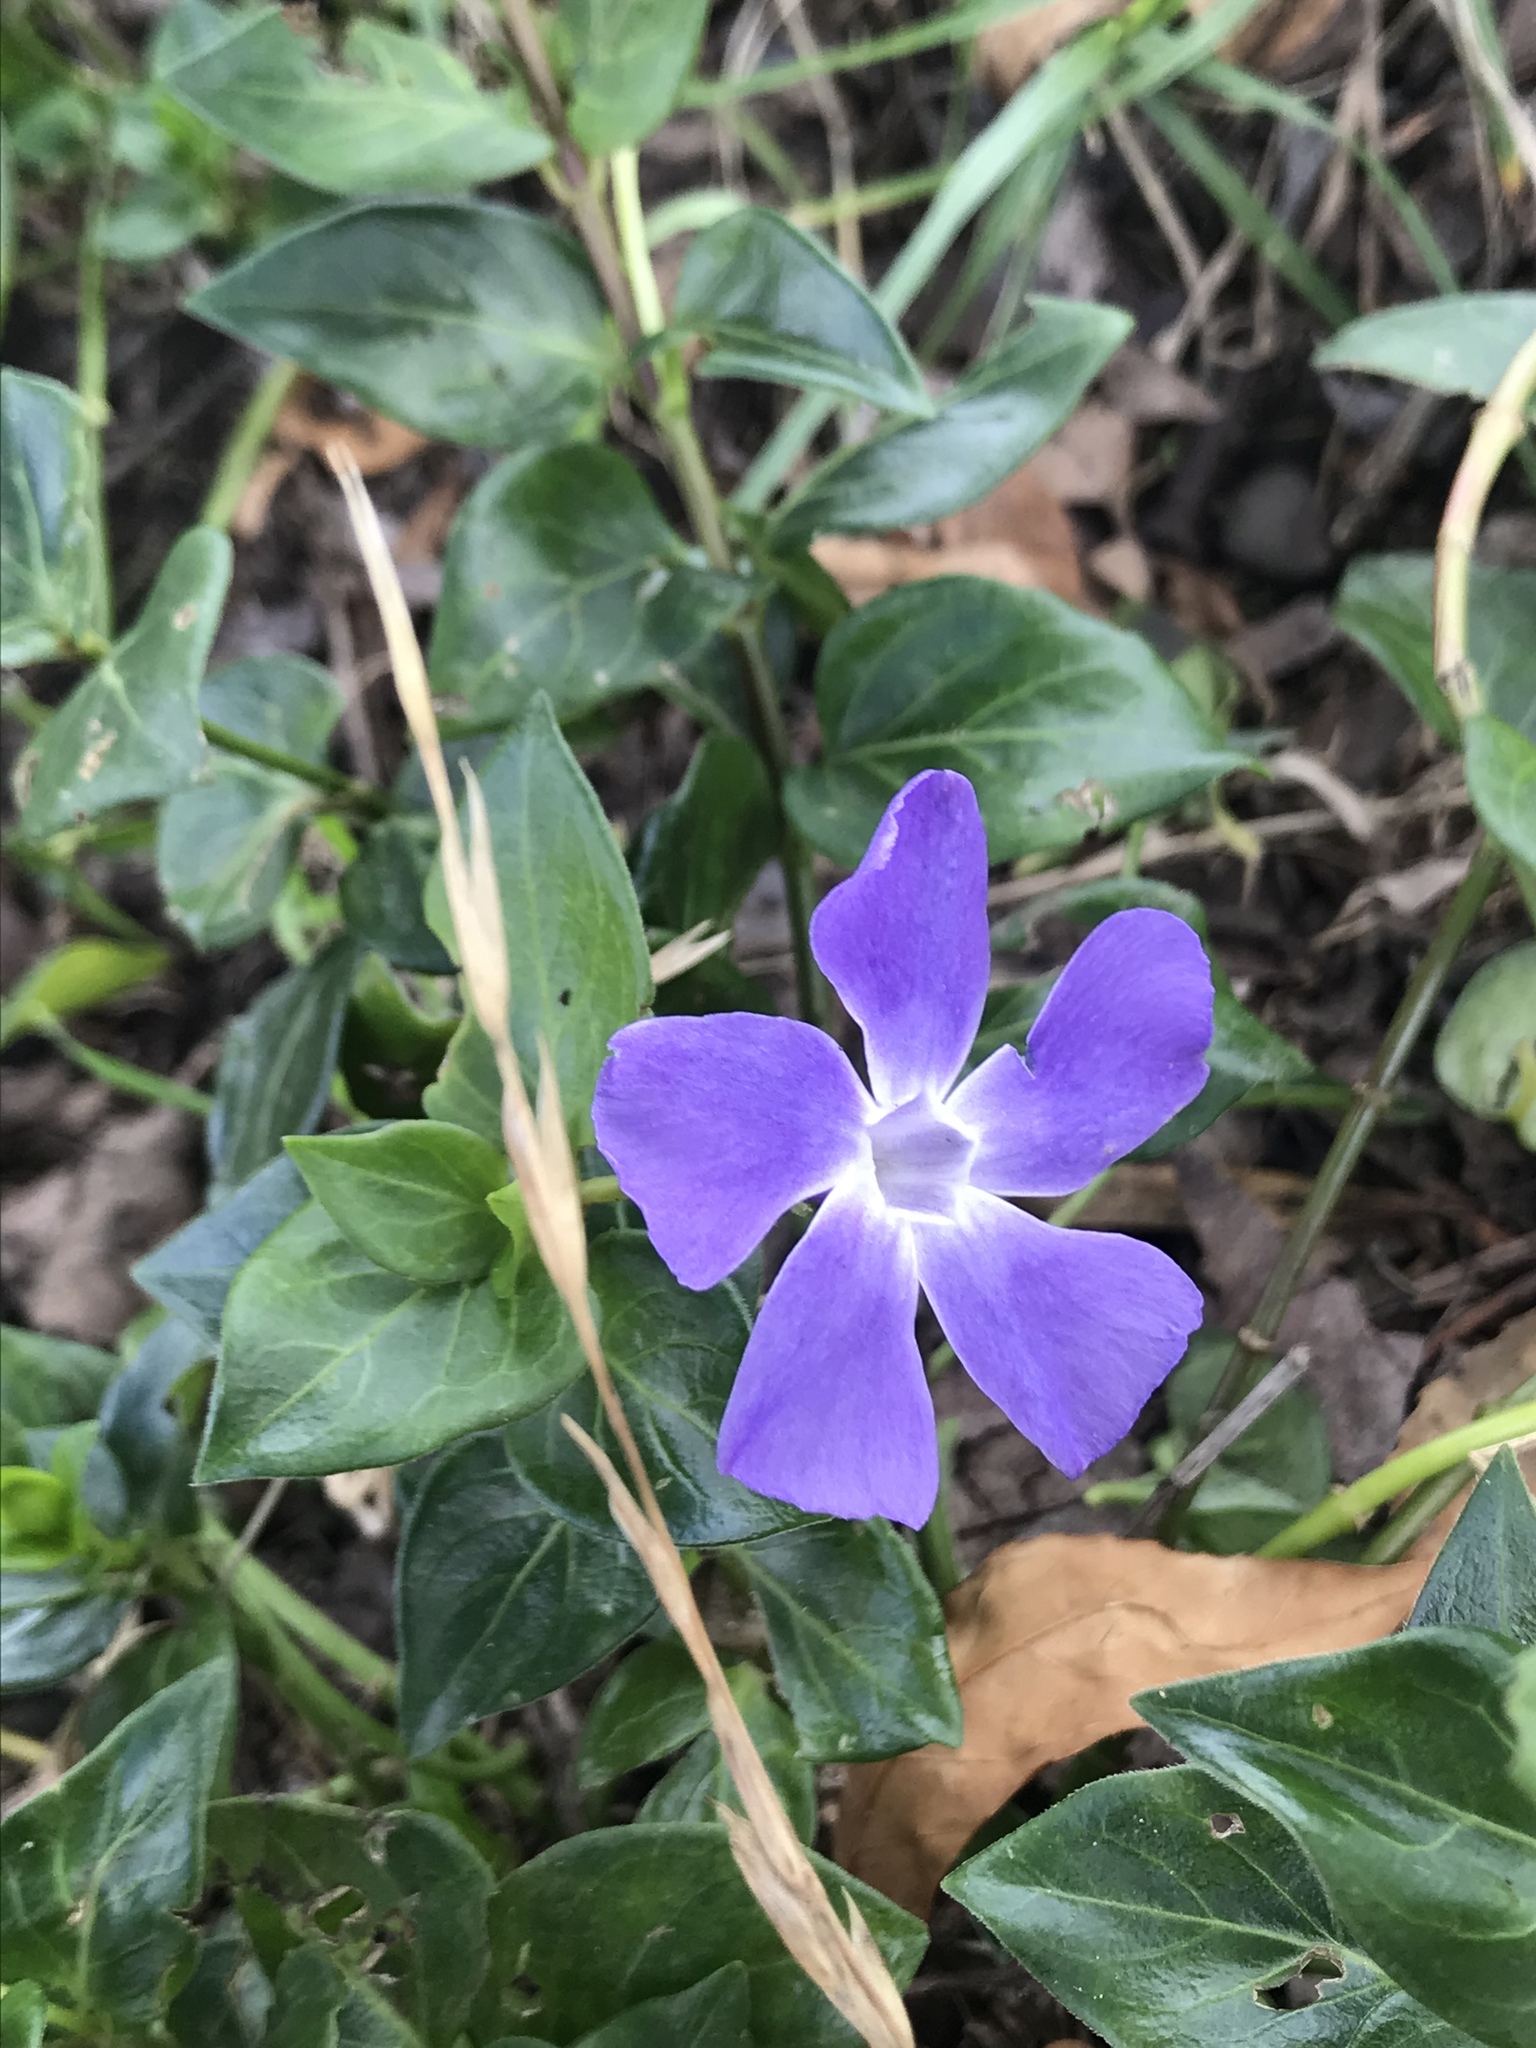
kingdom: Plantae
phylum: Tracheophyta
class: Magnoliopsida
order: Gentianales
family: Apocynaceae
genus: Vinca
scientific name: Vinca major
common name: Greater periwinkle
